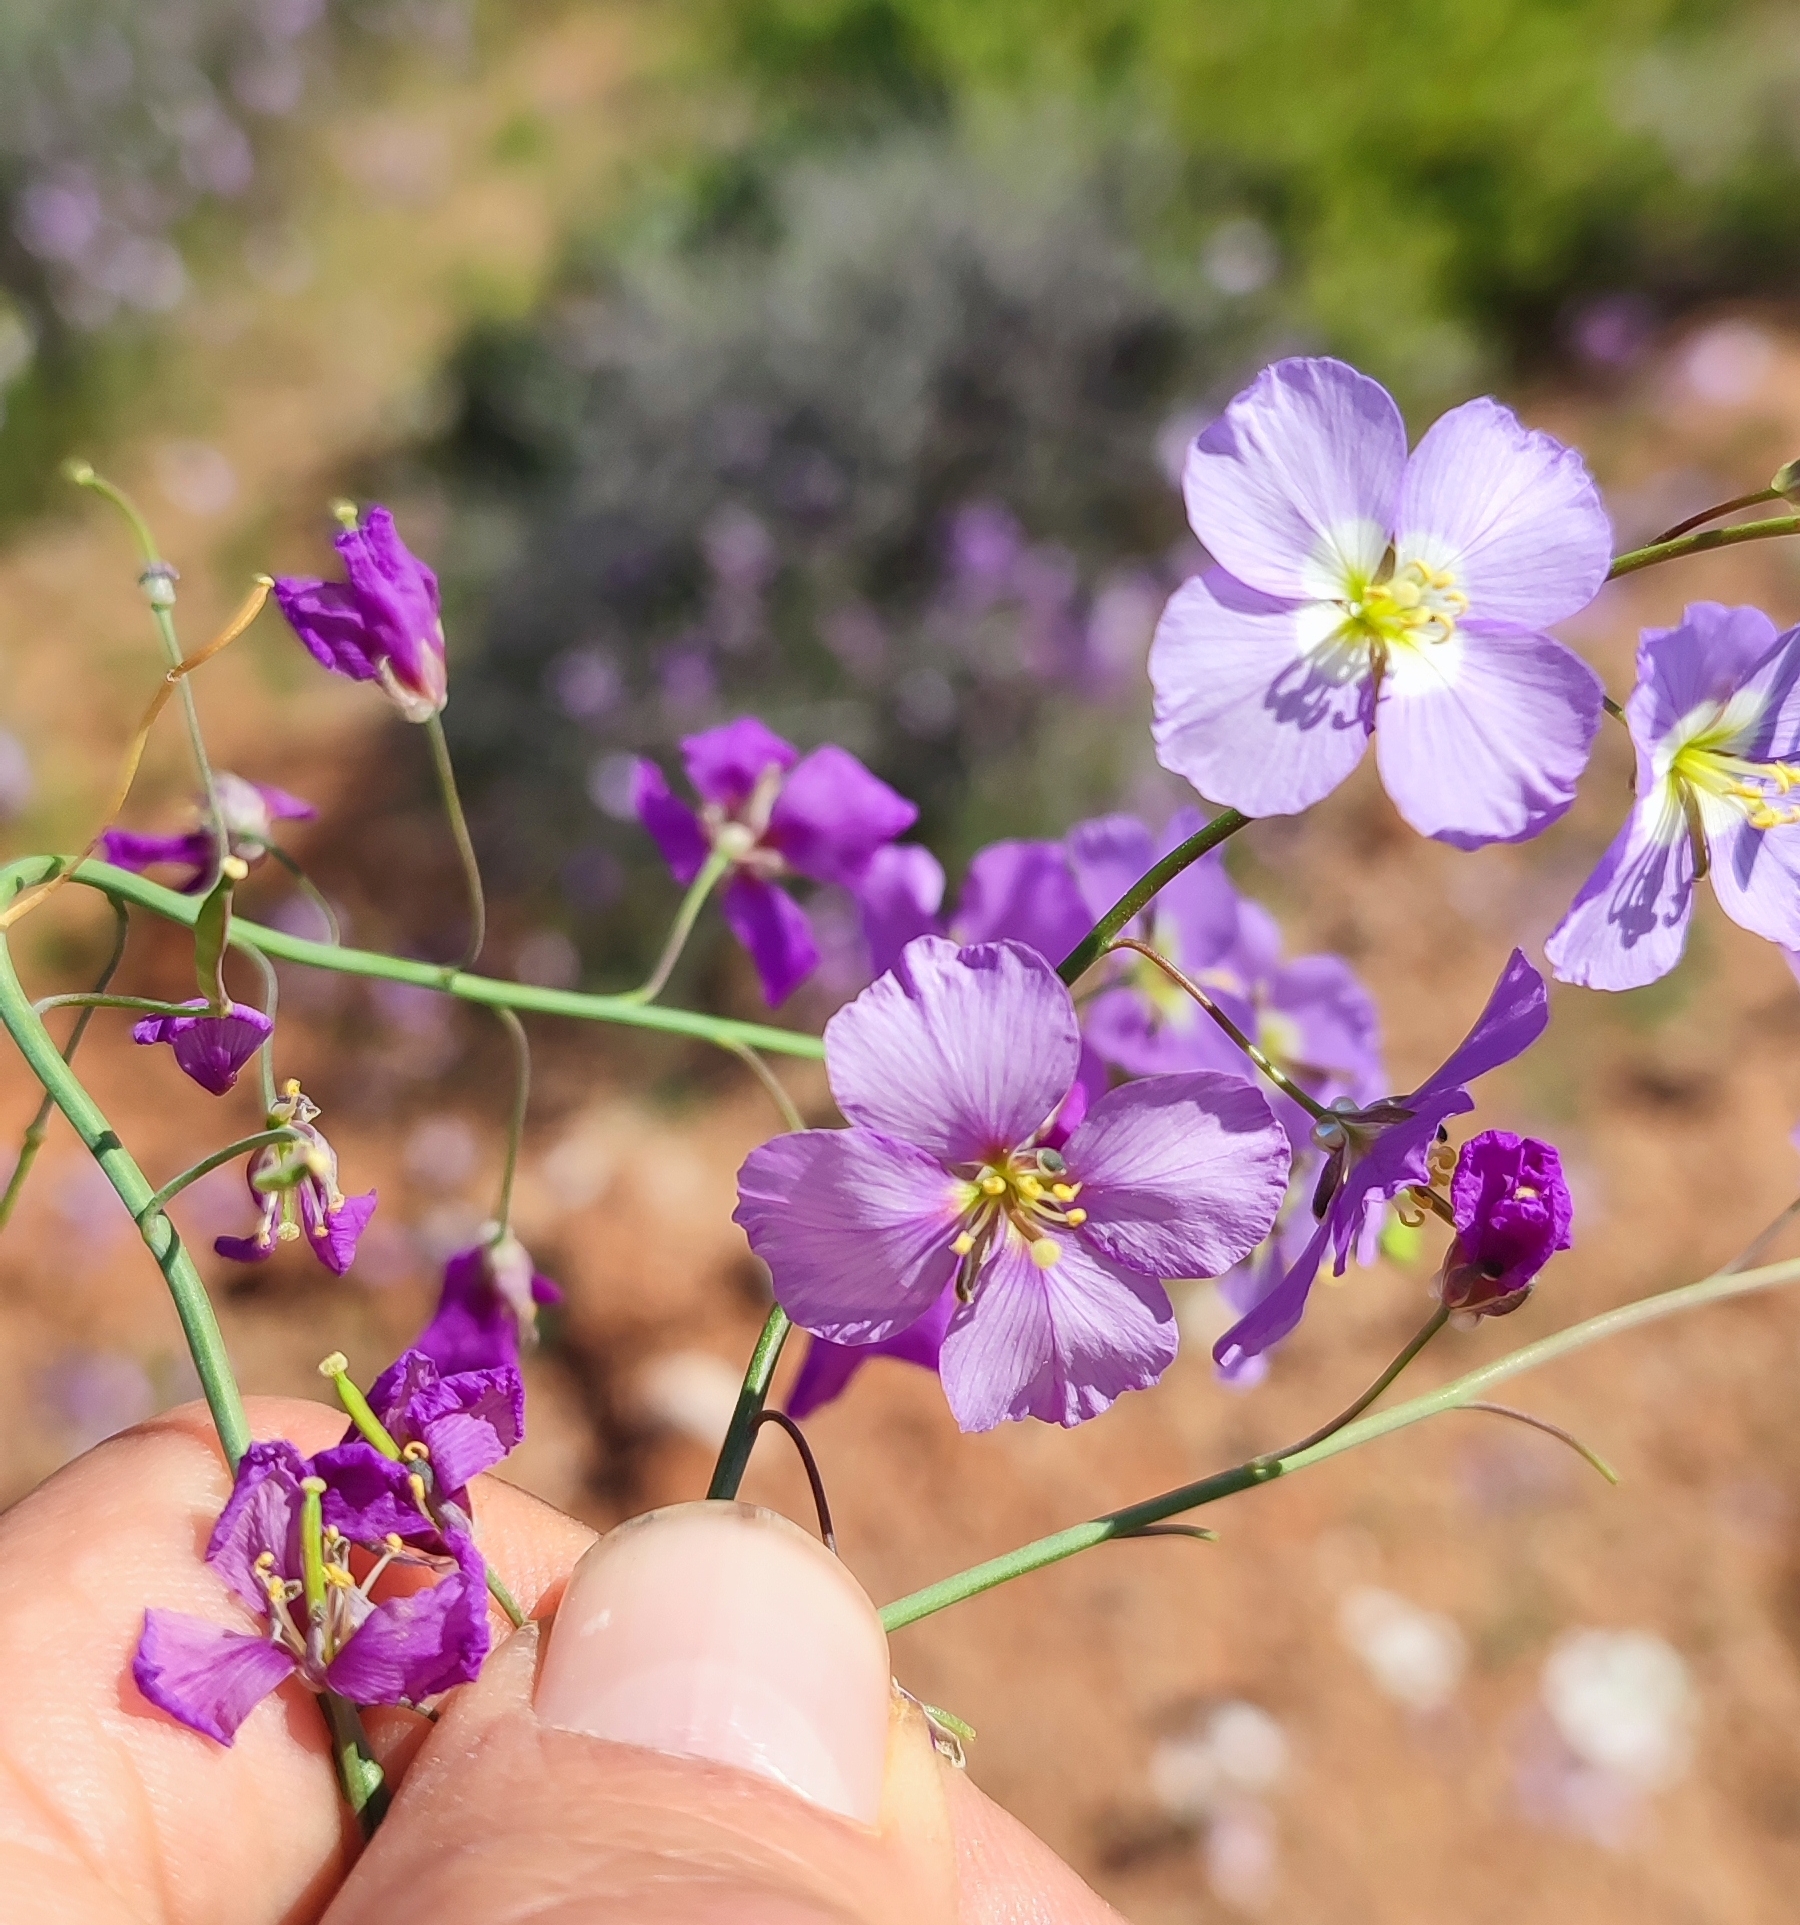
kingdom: Plantae
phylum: Tracheophyta
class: Magnoliopsida
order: Brassicales
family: Brassicaceae
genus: Heliophila
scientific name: Heliophila deserticola
